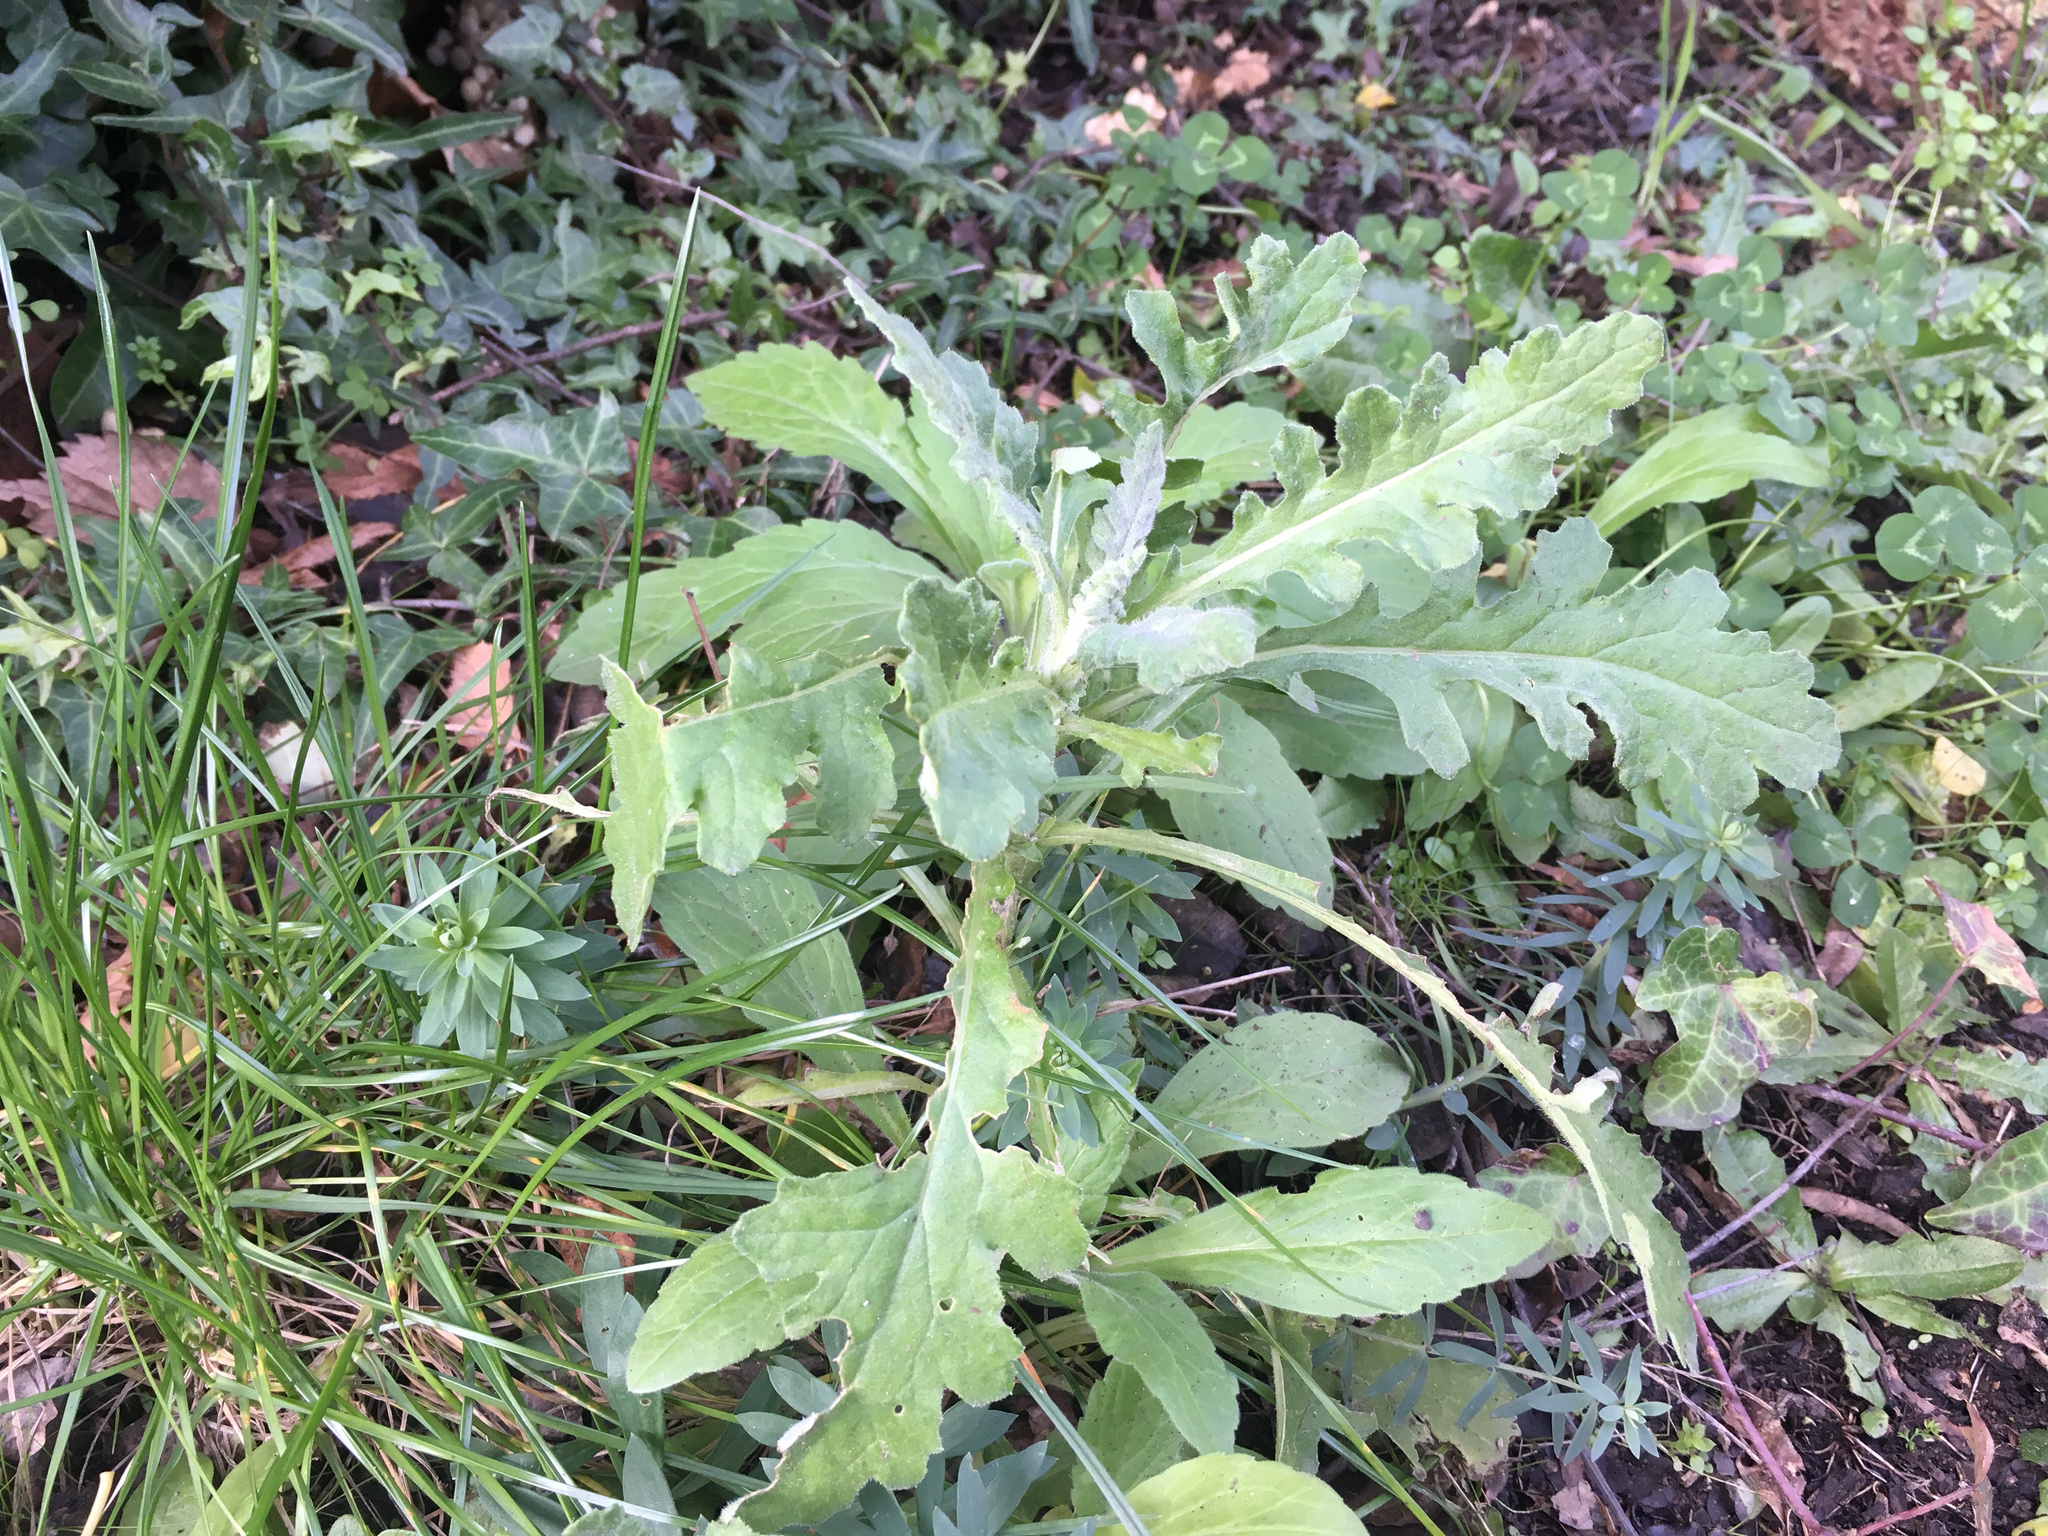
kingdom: Plantae
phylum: Tracheophyta
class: Magnoliopsida
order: Asterales
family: Asteraceae
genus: Senecio
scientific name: Senecio glomeratus
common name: Cutleaf burnweed
